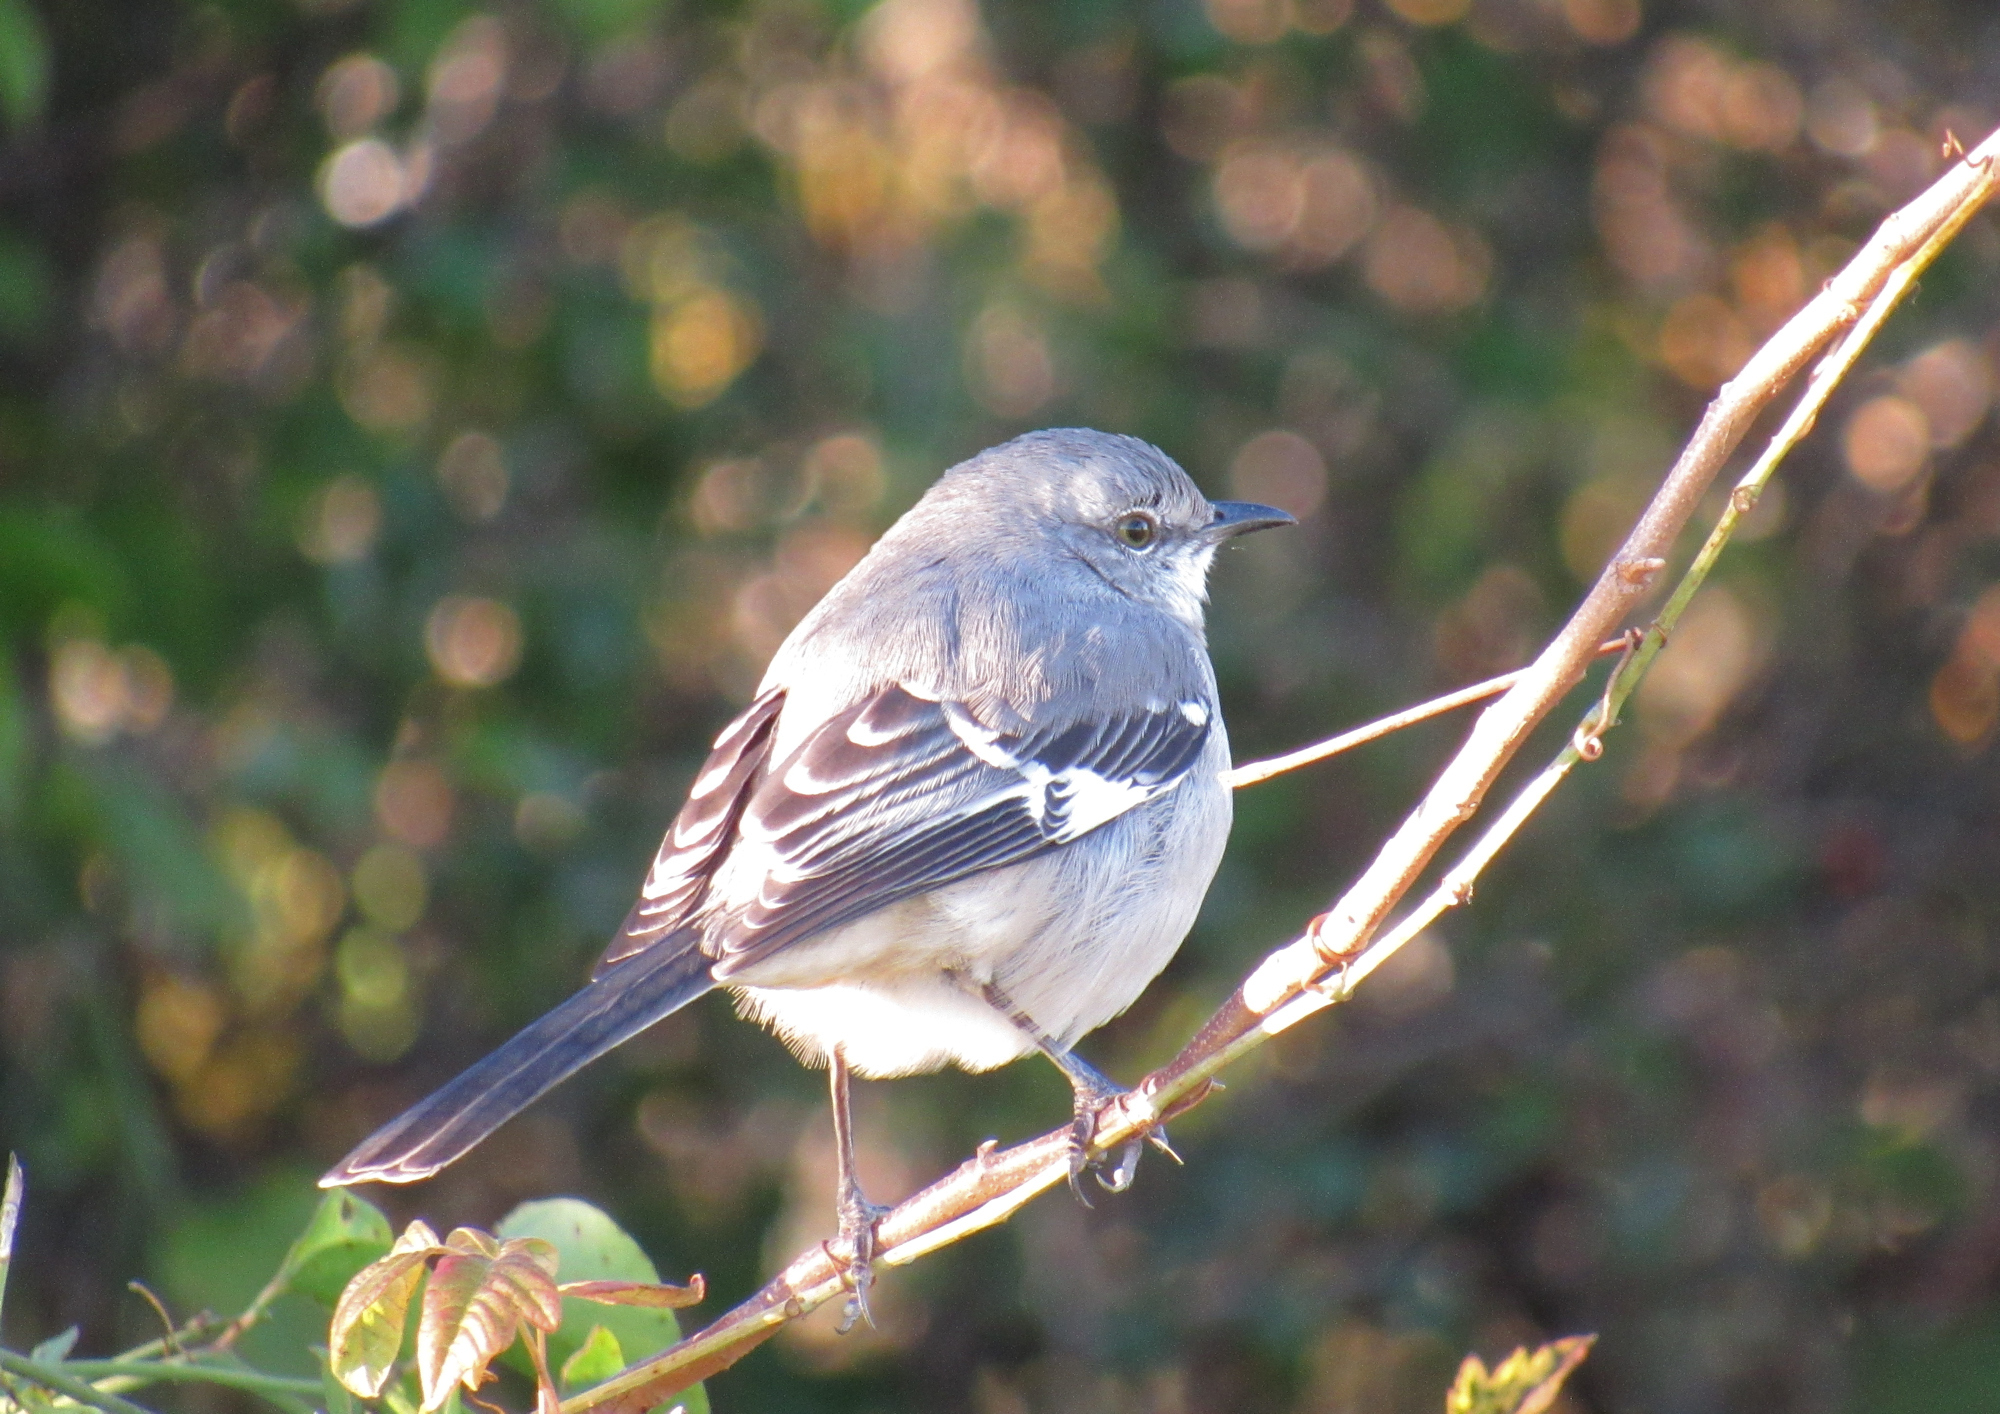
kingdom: Animalia
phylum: Chordata
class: Aves
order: Passeriformes
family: Mimidae
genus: Mimus
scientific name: Mimus polyglottos
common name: Northern mockingbird
